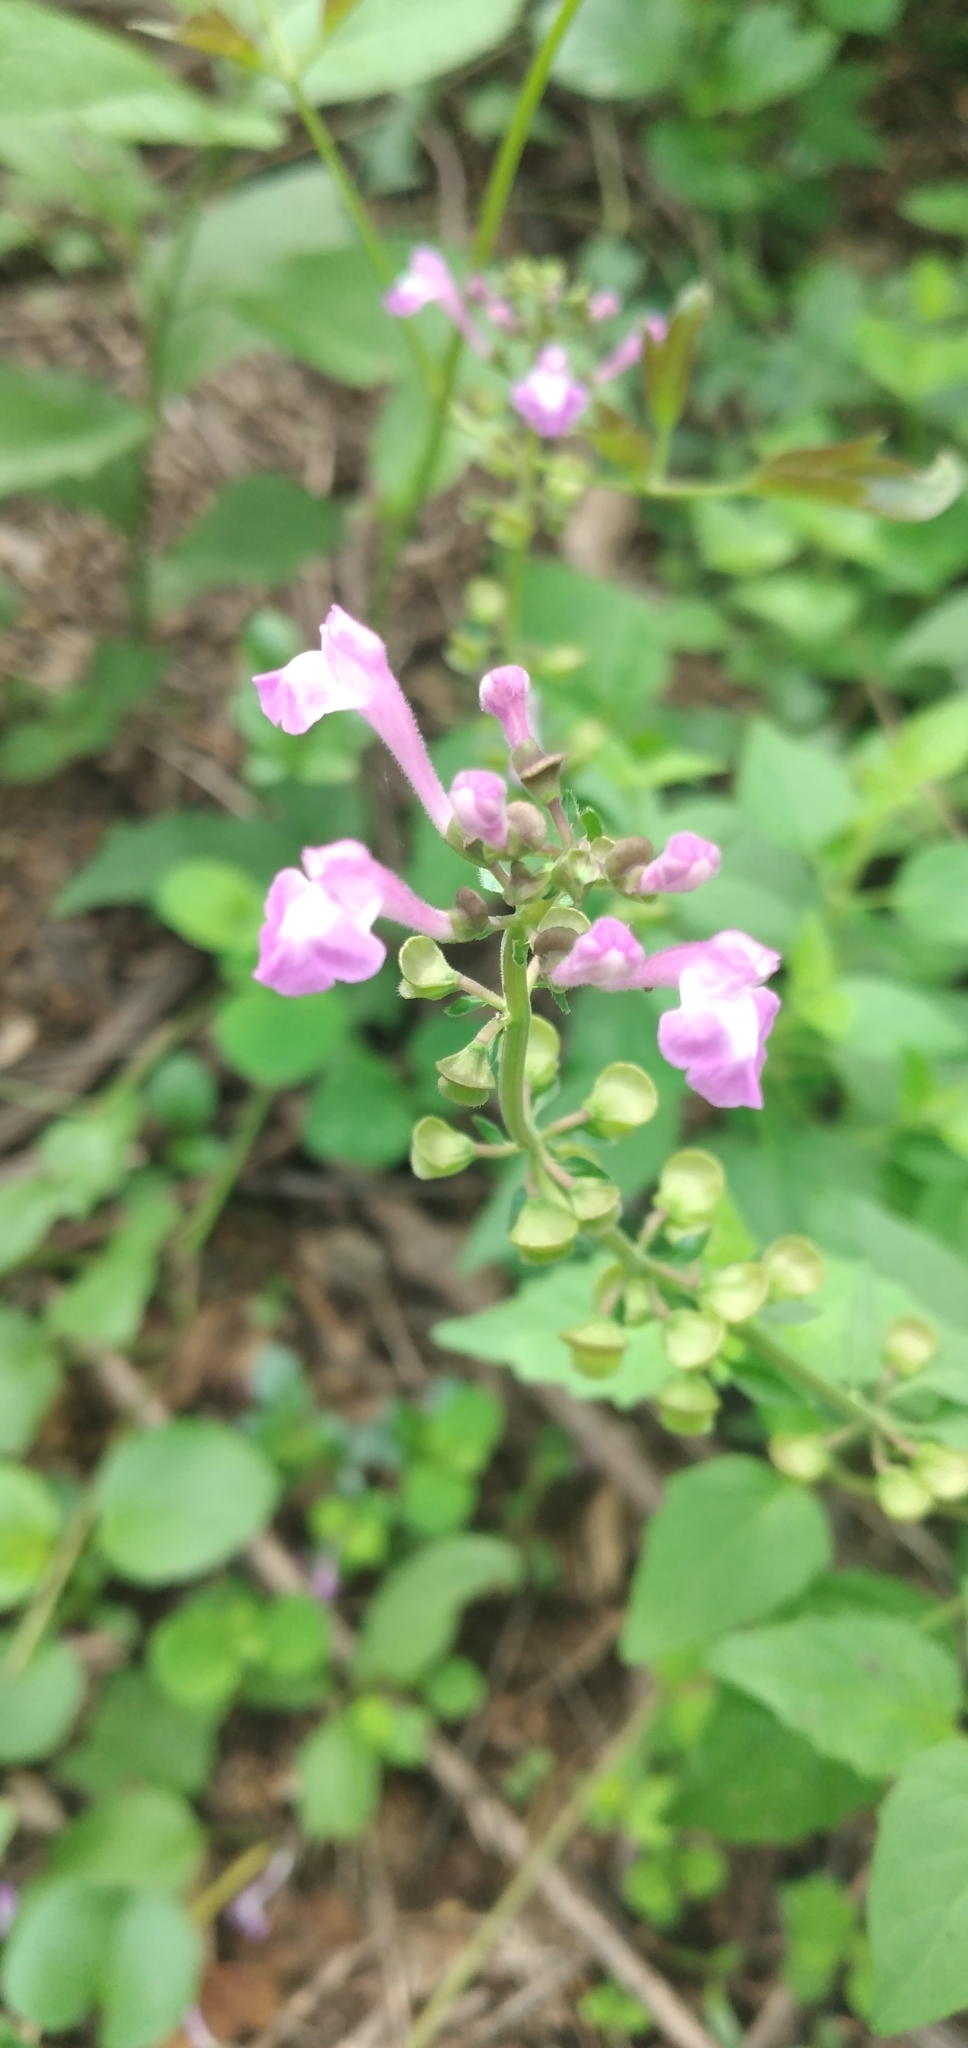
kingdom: Plantae
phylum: Tracheophyta
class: Magnoliopsida
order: Lamiales
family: Lamiaceae
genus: Scutellaria
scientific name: Scutellaria purpurascens
